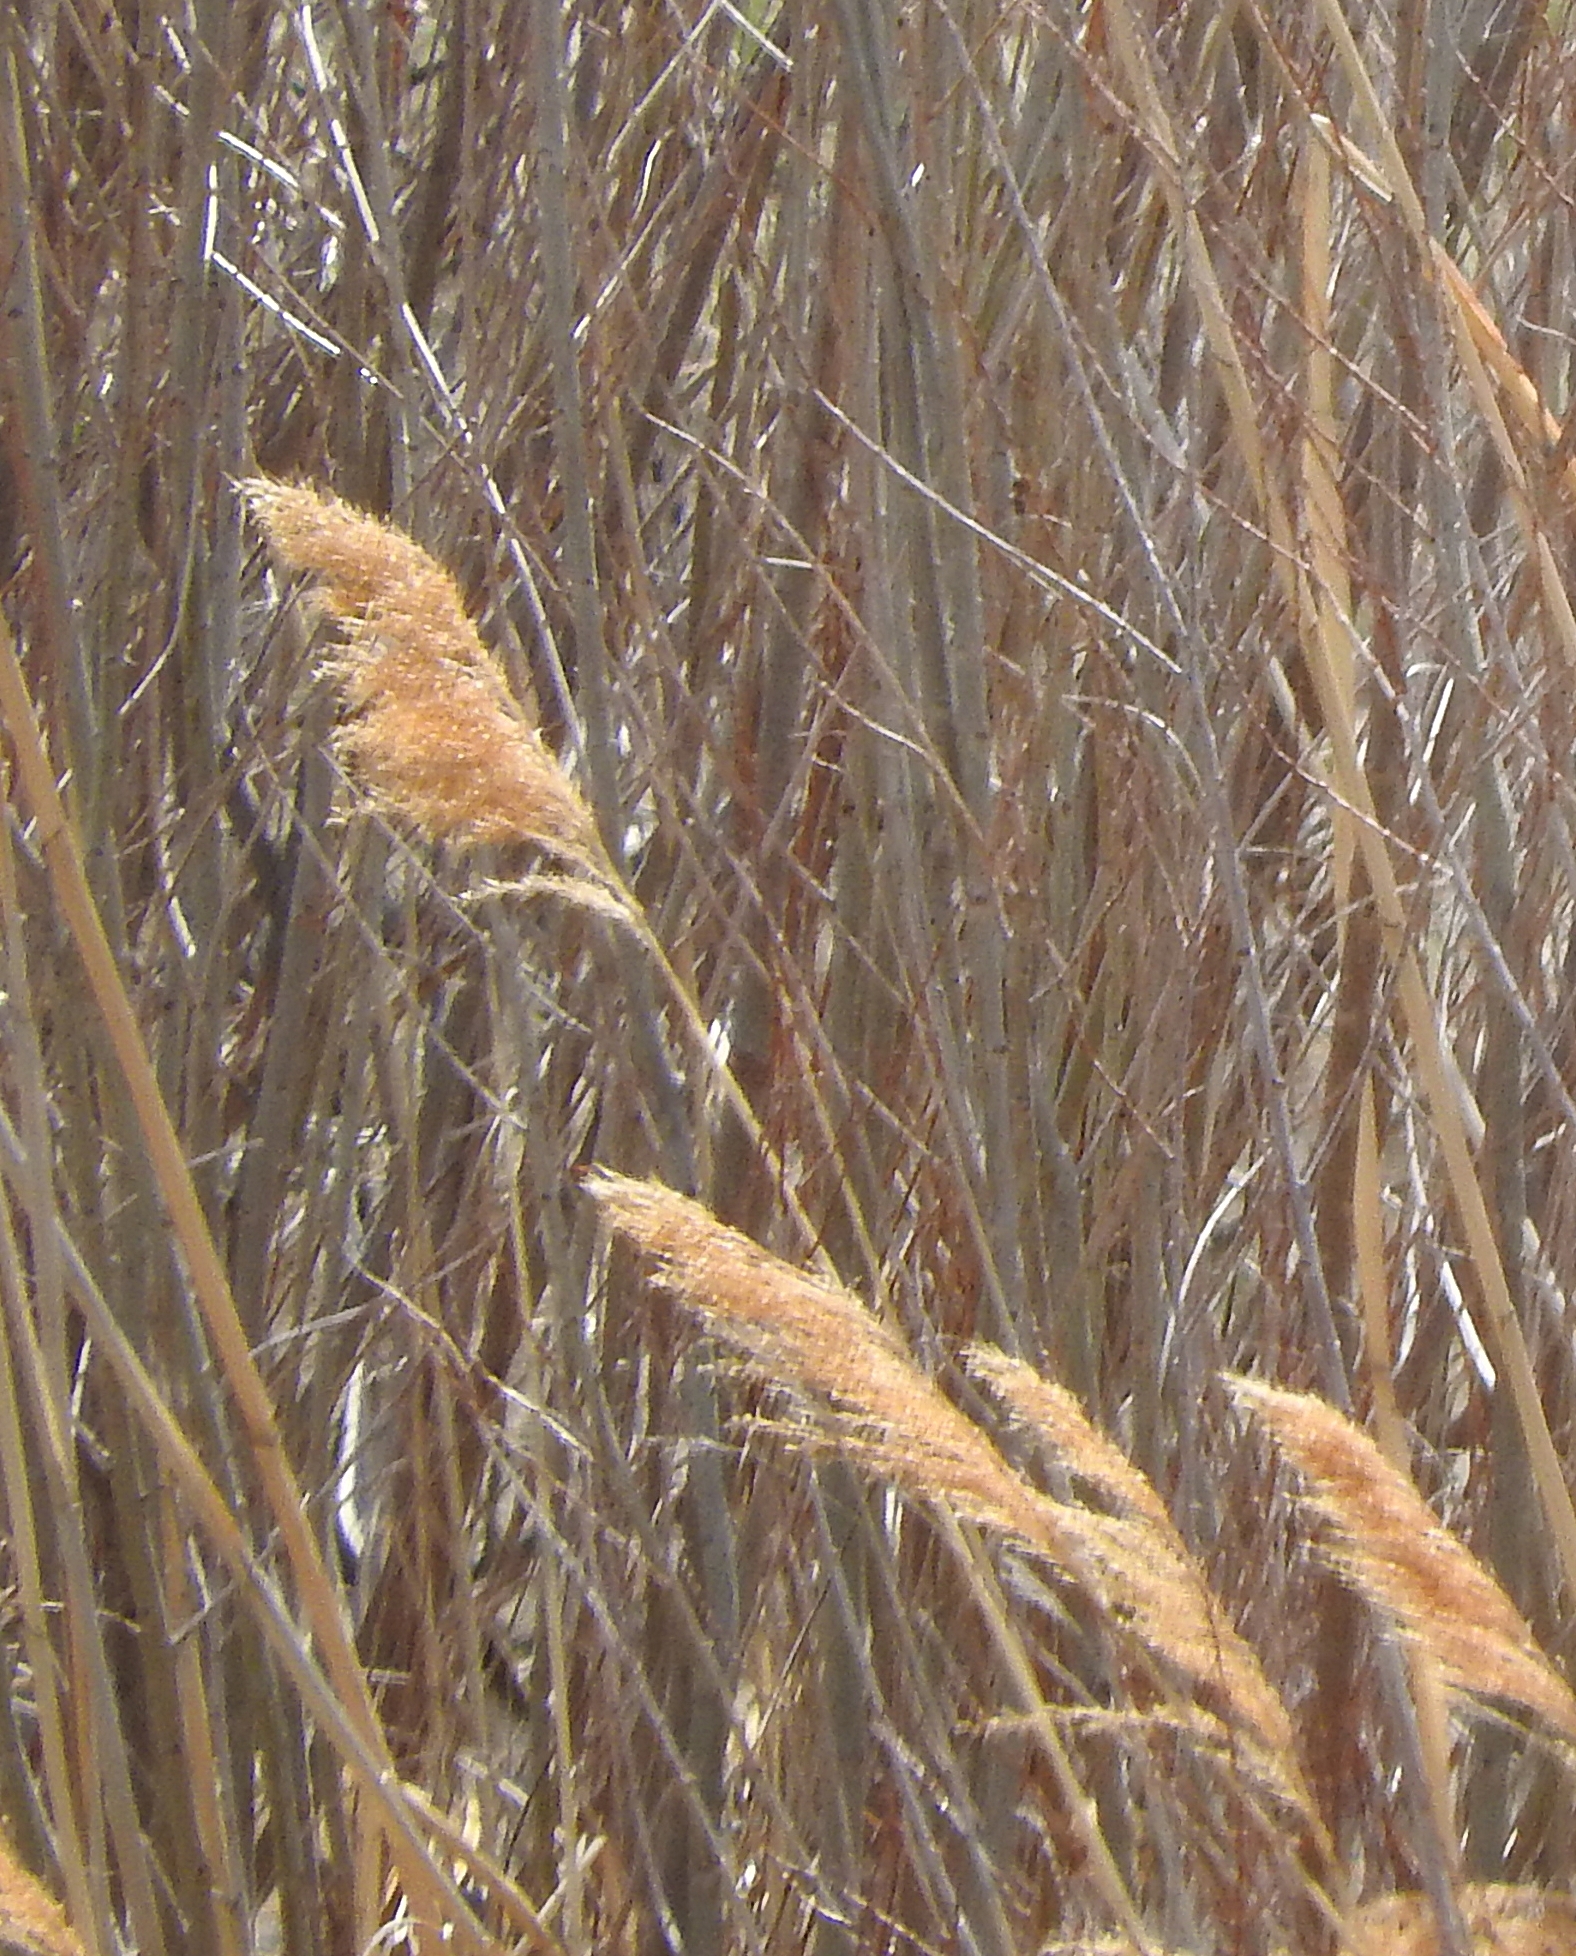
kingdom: Plantae
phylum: Tracheophyta
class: Liliopsida
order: Poales
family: Poaceae
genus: Phragmites
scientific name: Phragmites australis
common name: Common reed
